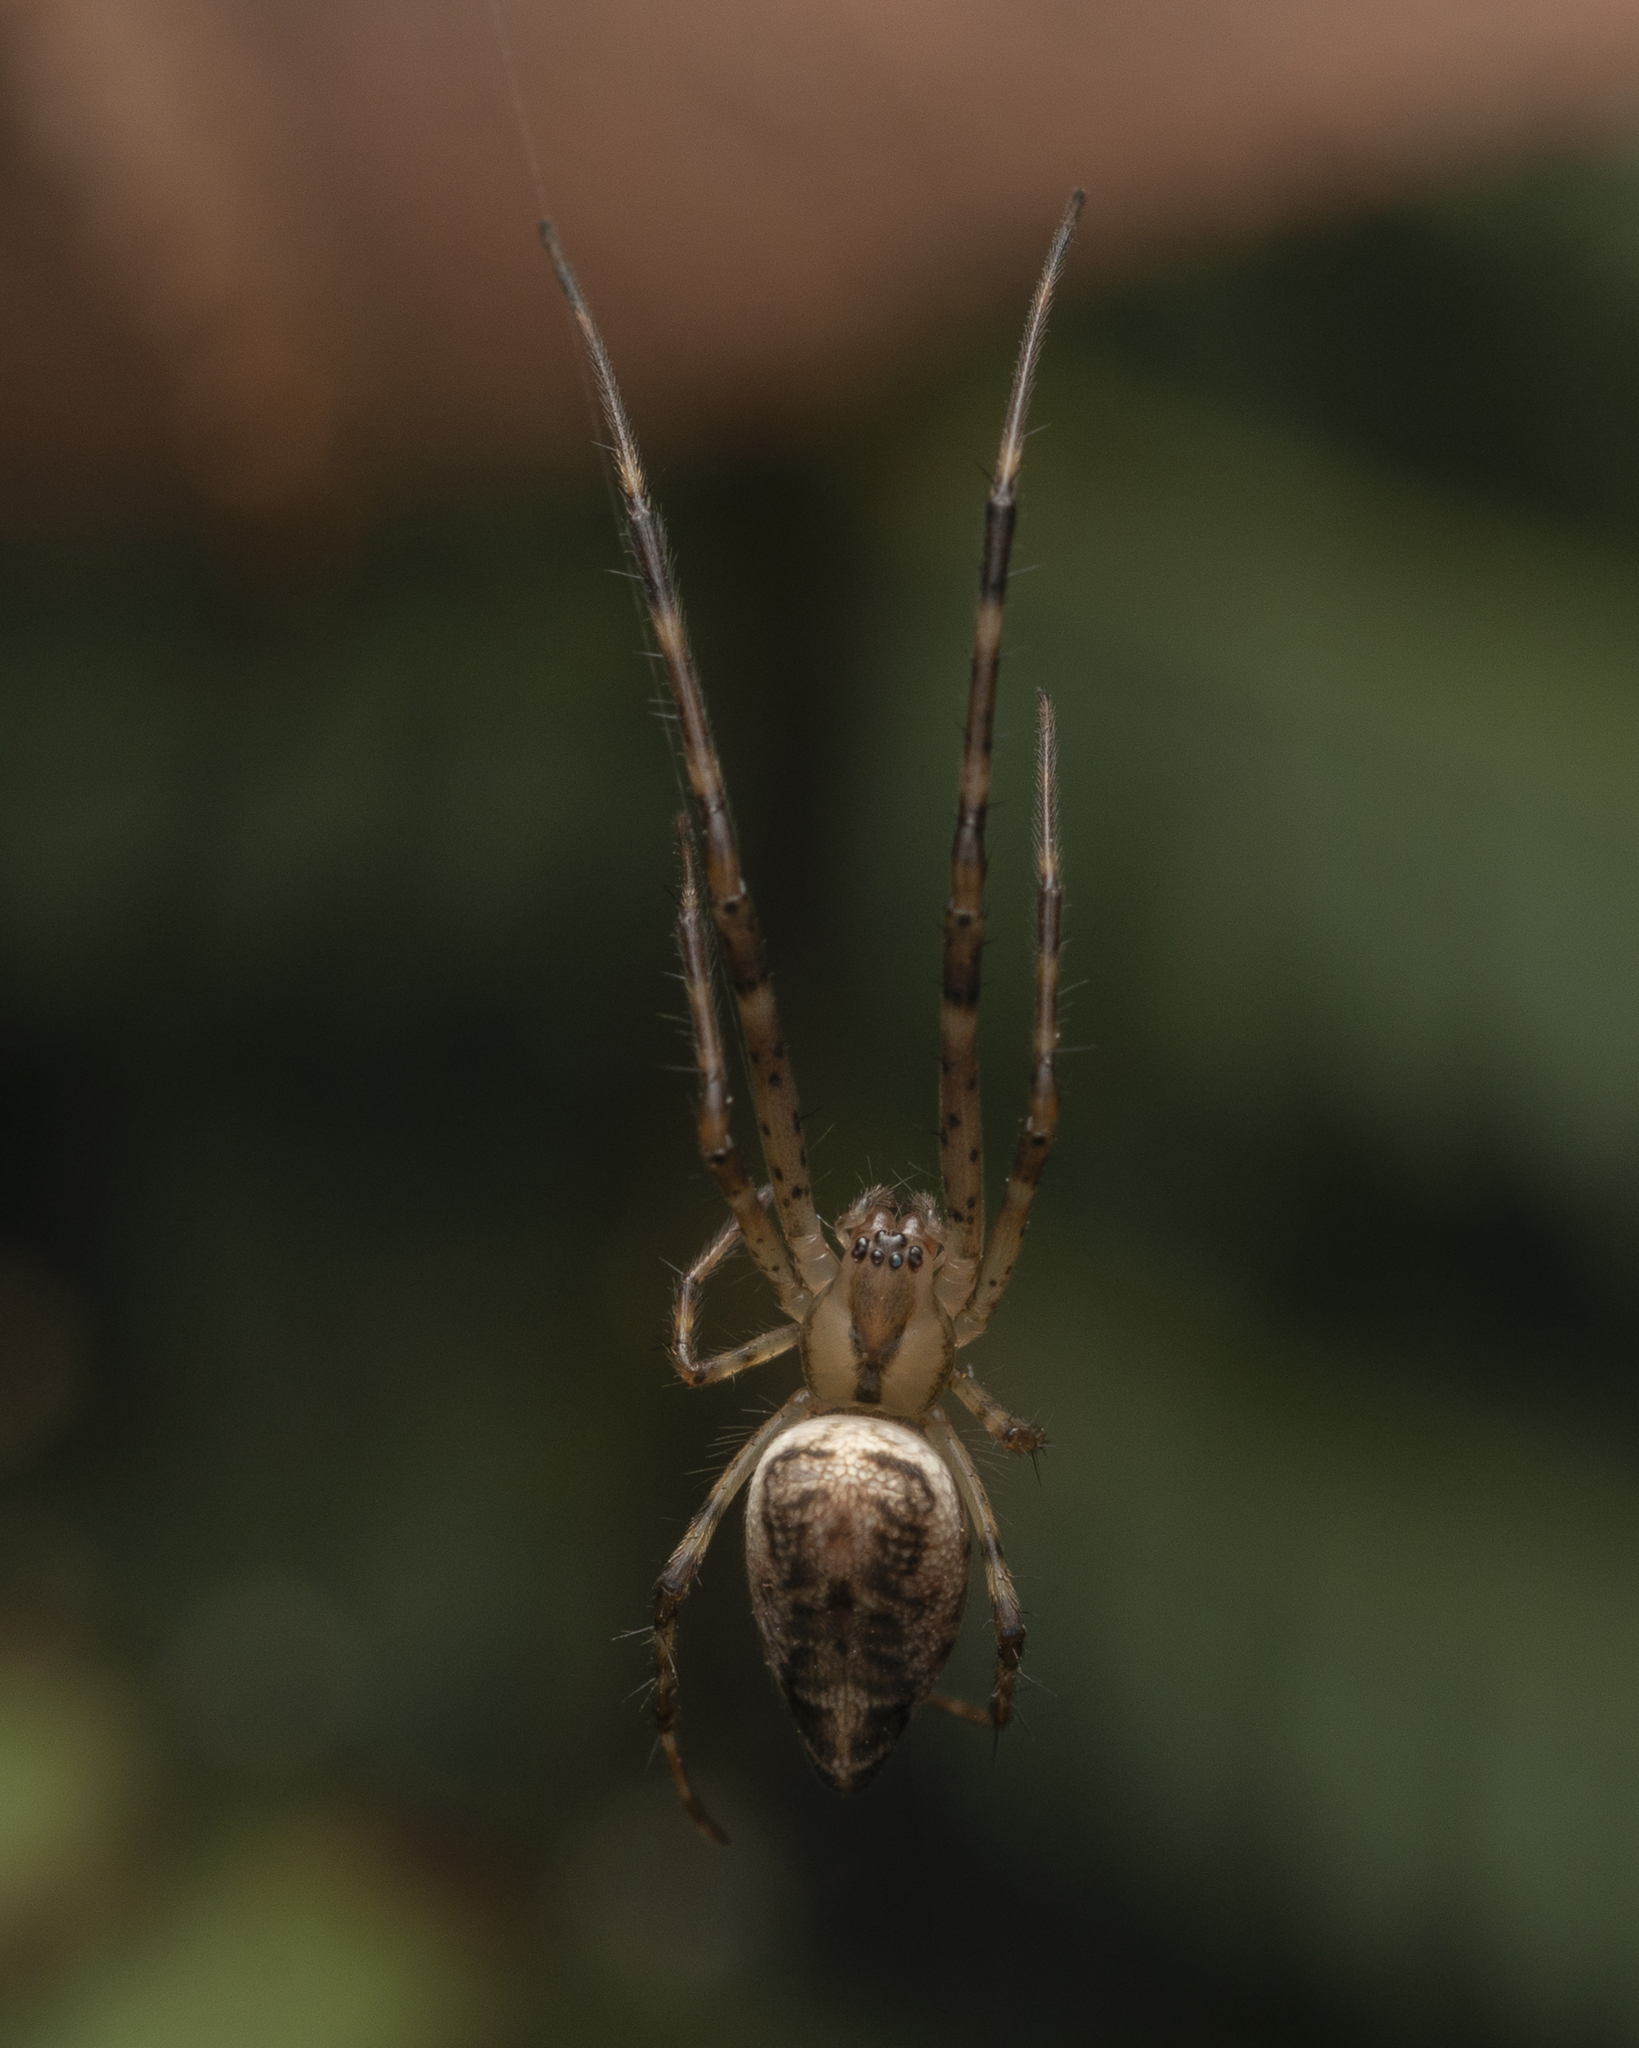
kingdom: Animalia
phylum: Arthropoda
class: Arachnida
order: Araneae
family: Tetragnathidae
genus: Tylorida
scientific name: Tylorida ventralis
